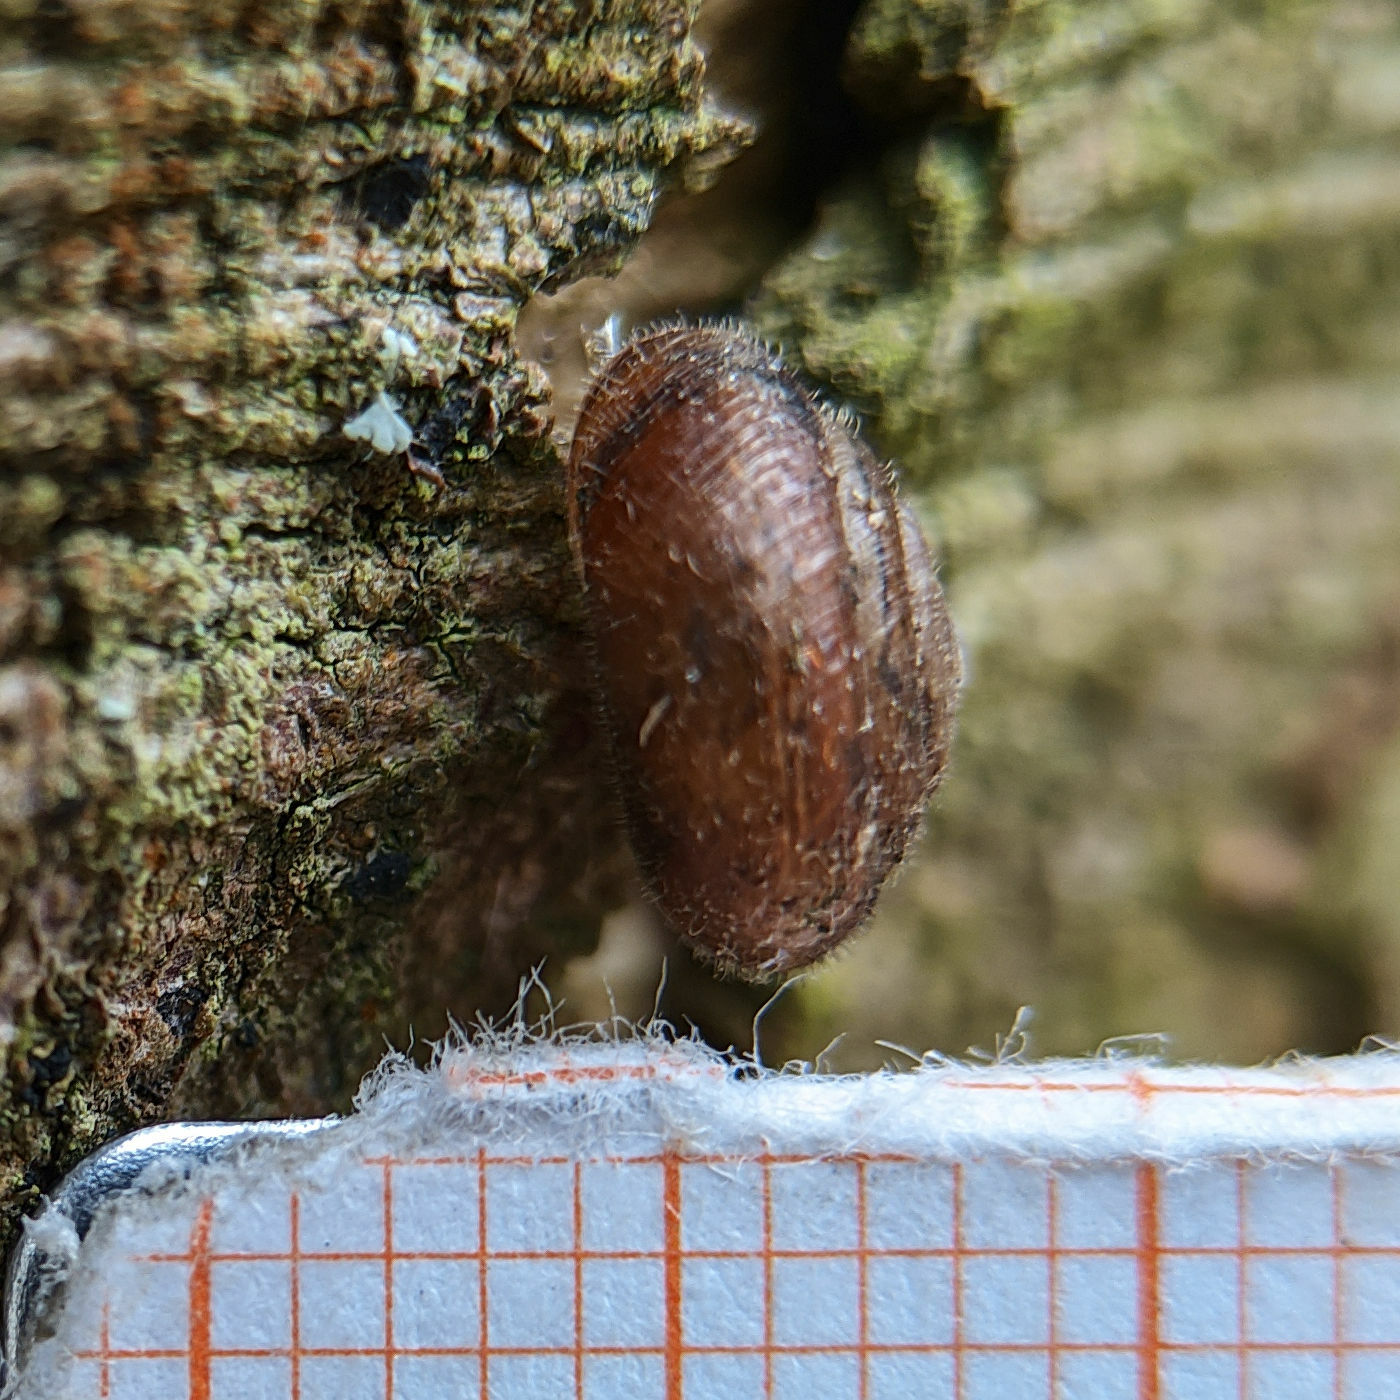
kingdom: Animalia
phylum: Mollusca
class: Gastropoda
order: Stylommatophora
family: Hygromiidae
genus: Trochulus
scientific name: Trochulus hispidus
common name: Hairy snail
